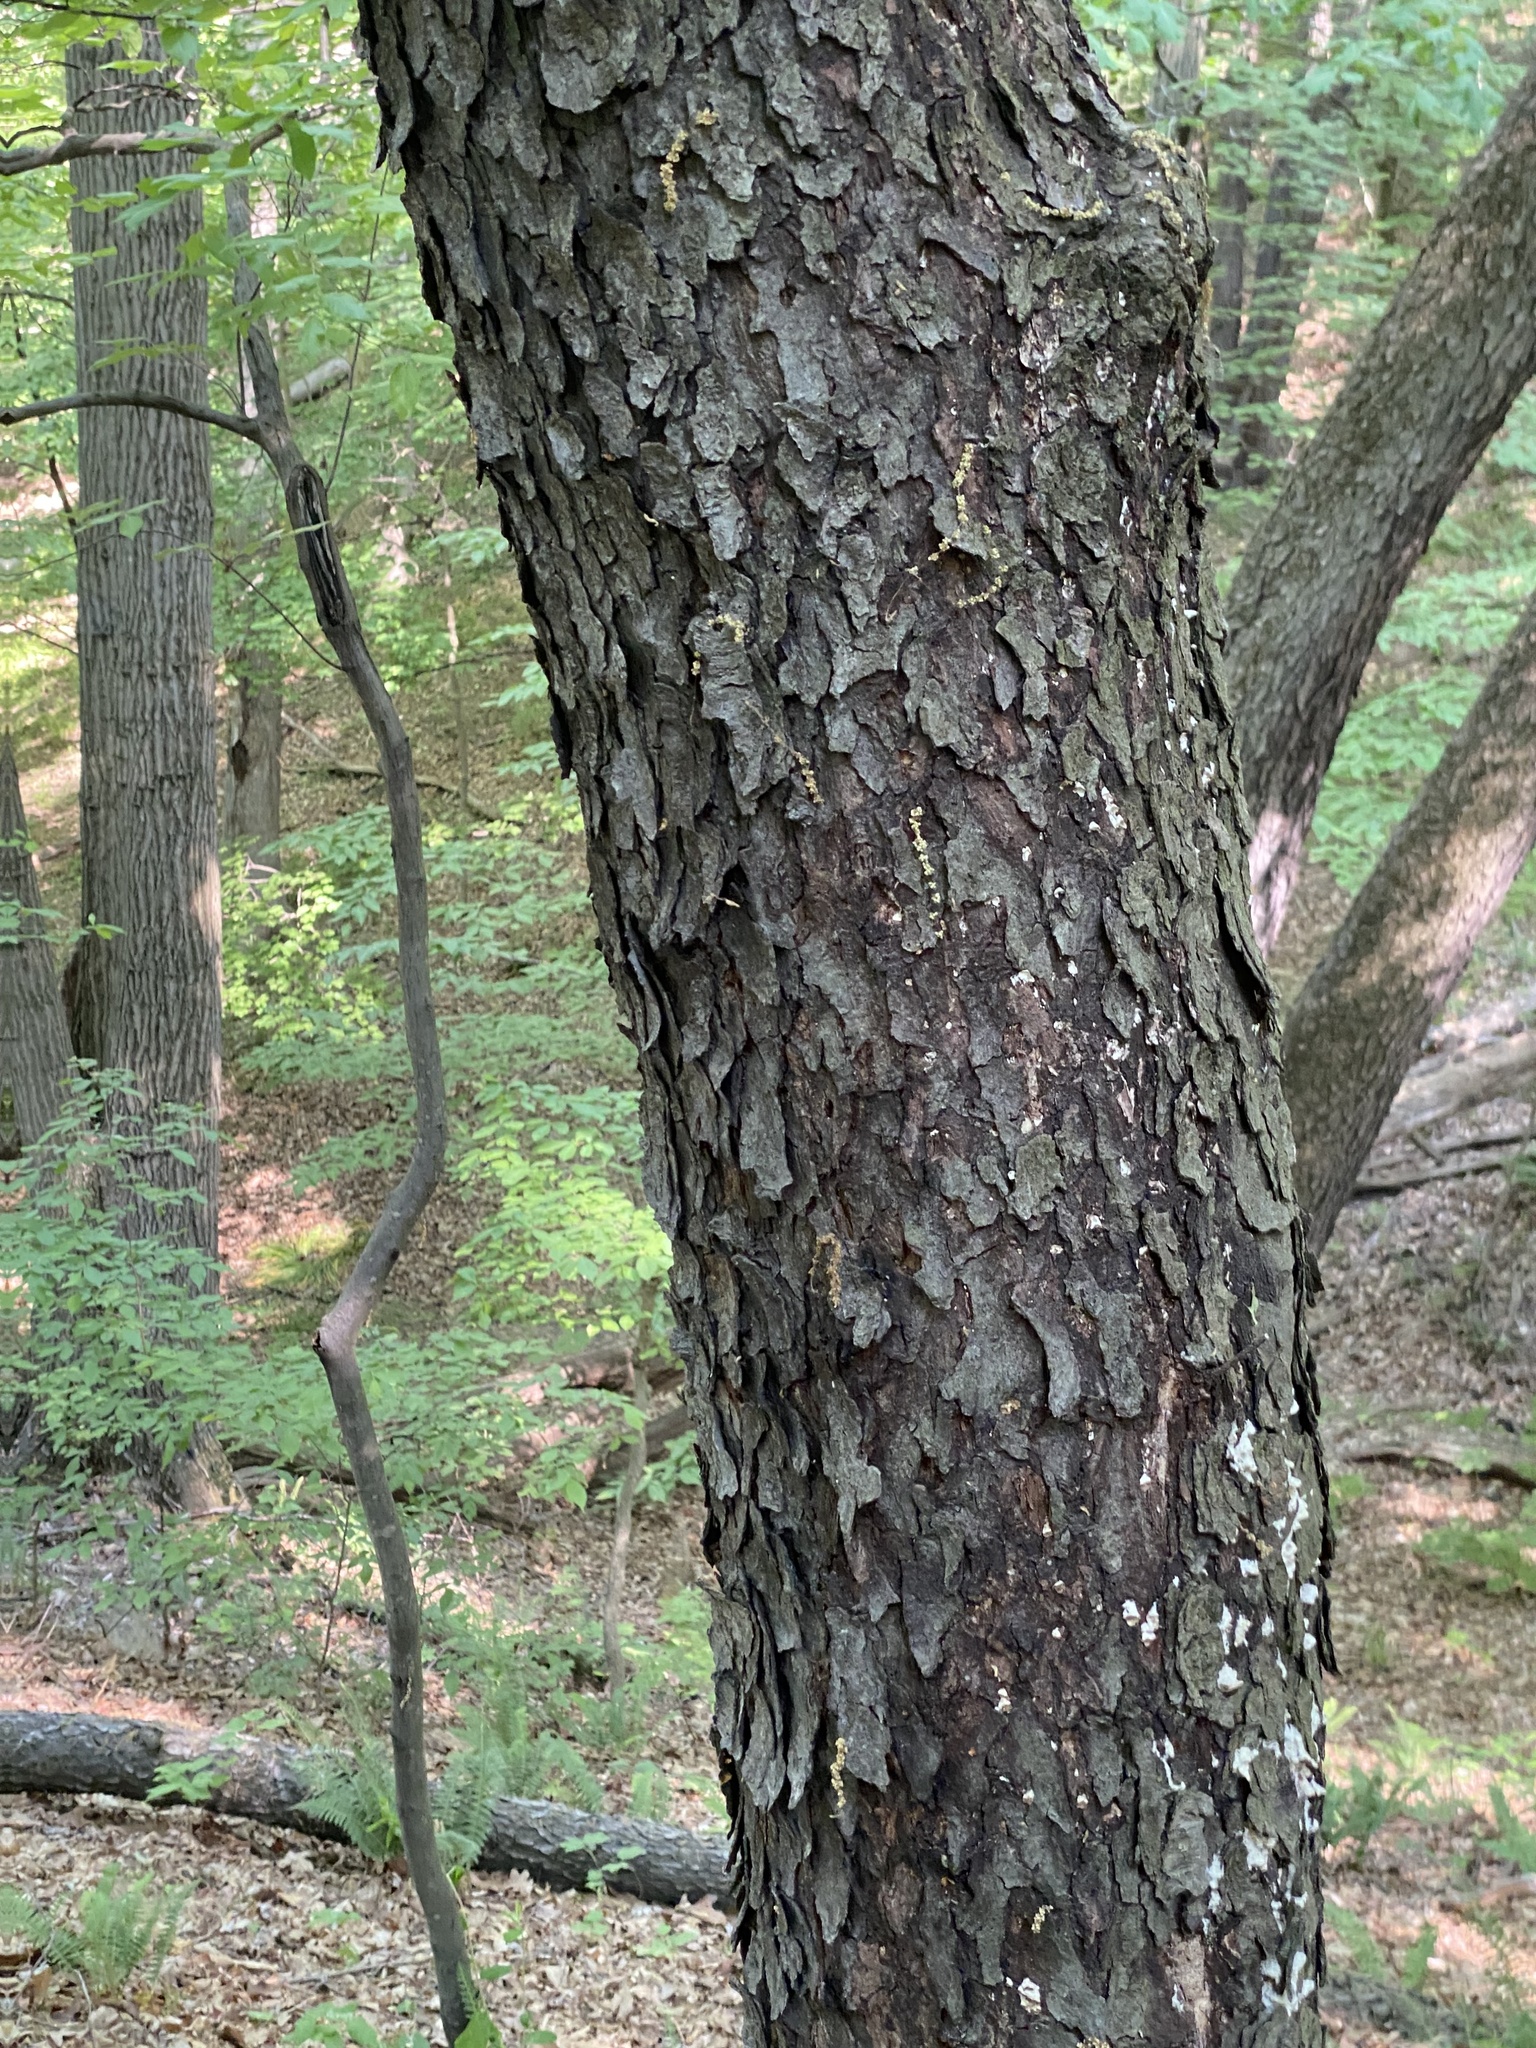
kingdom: Plantae
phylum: Tracheophyta
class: Magnoliopsida
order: Rosales
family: Rosaceae
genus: Prunus
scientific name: Prunus serotina
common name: Black cherry
